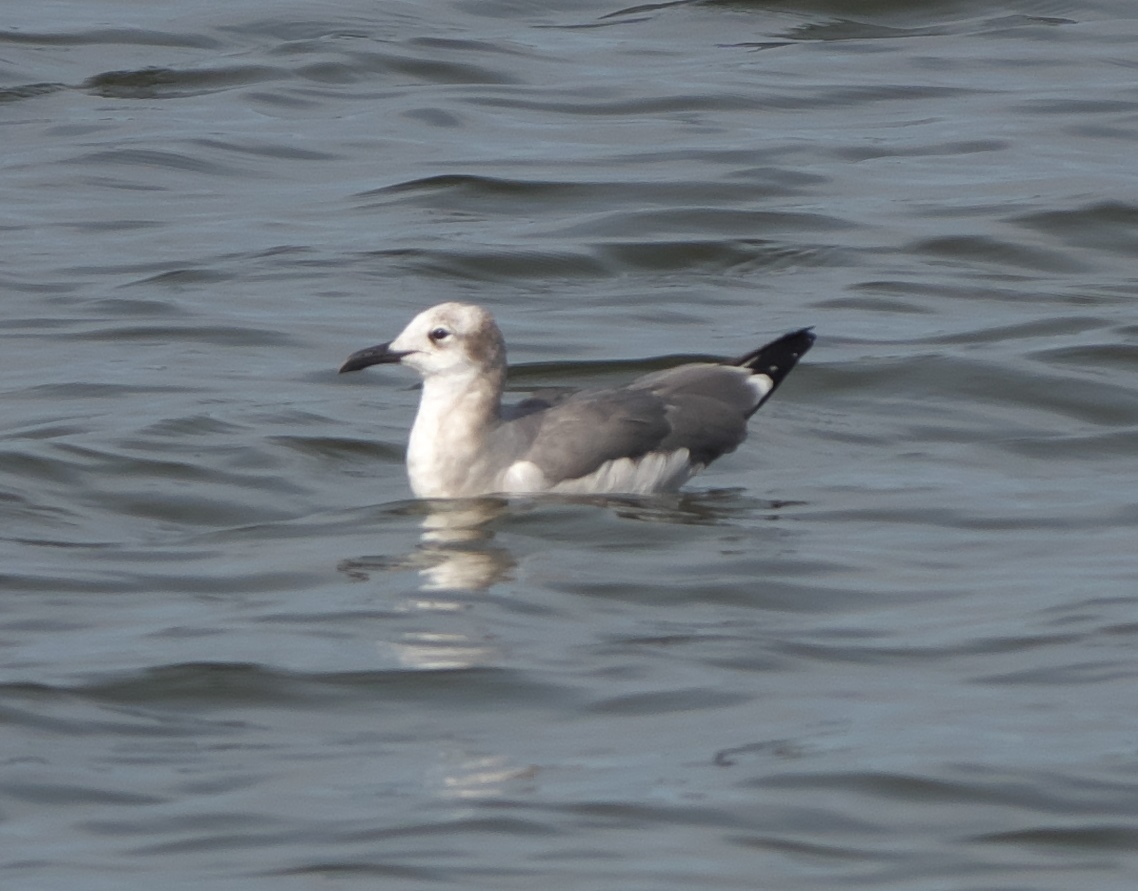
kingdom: Animalia
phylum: Chordata
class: Aves
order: Charadriiformes
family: Laridae
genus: Leucophaeus
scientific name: Leucophaeus atricilla
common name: Laughing gull
